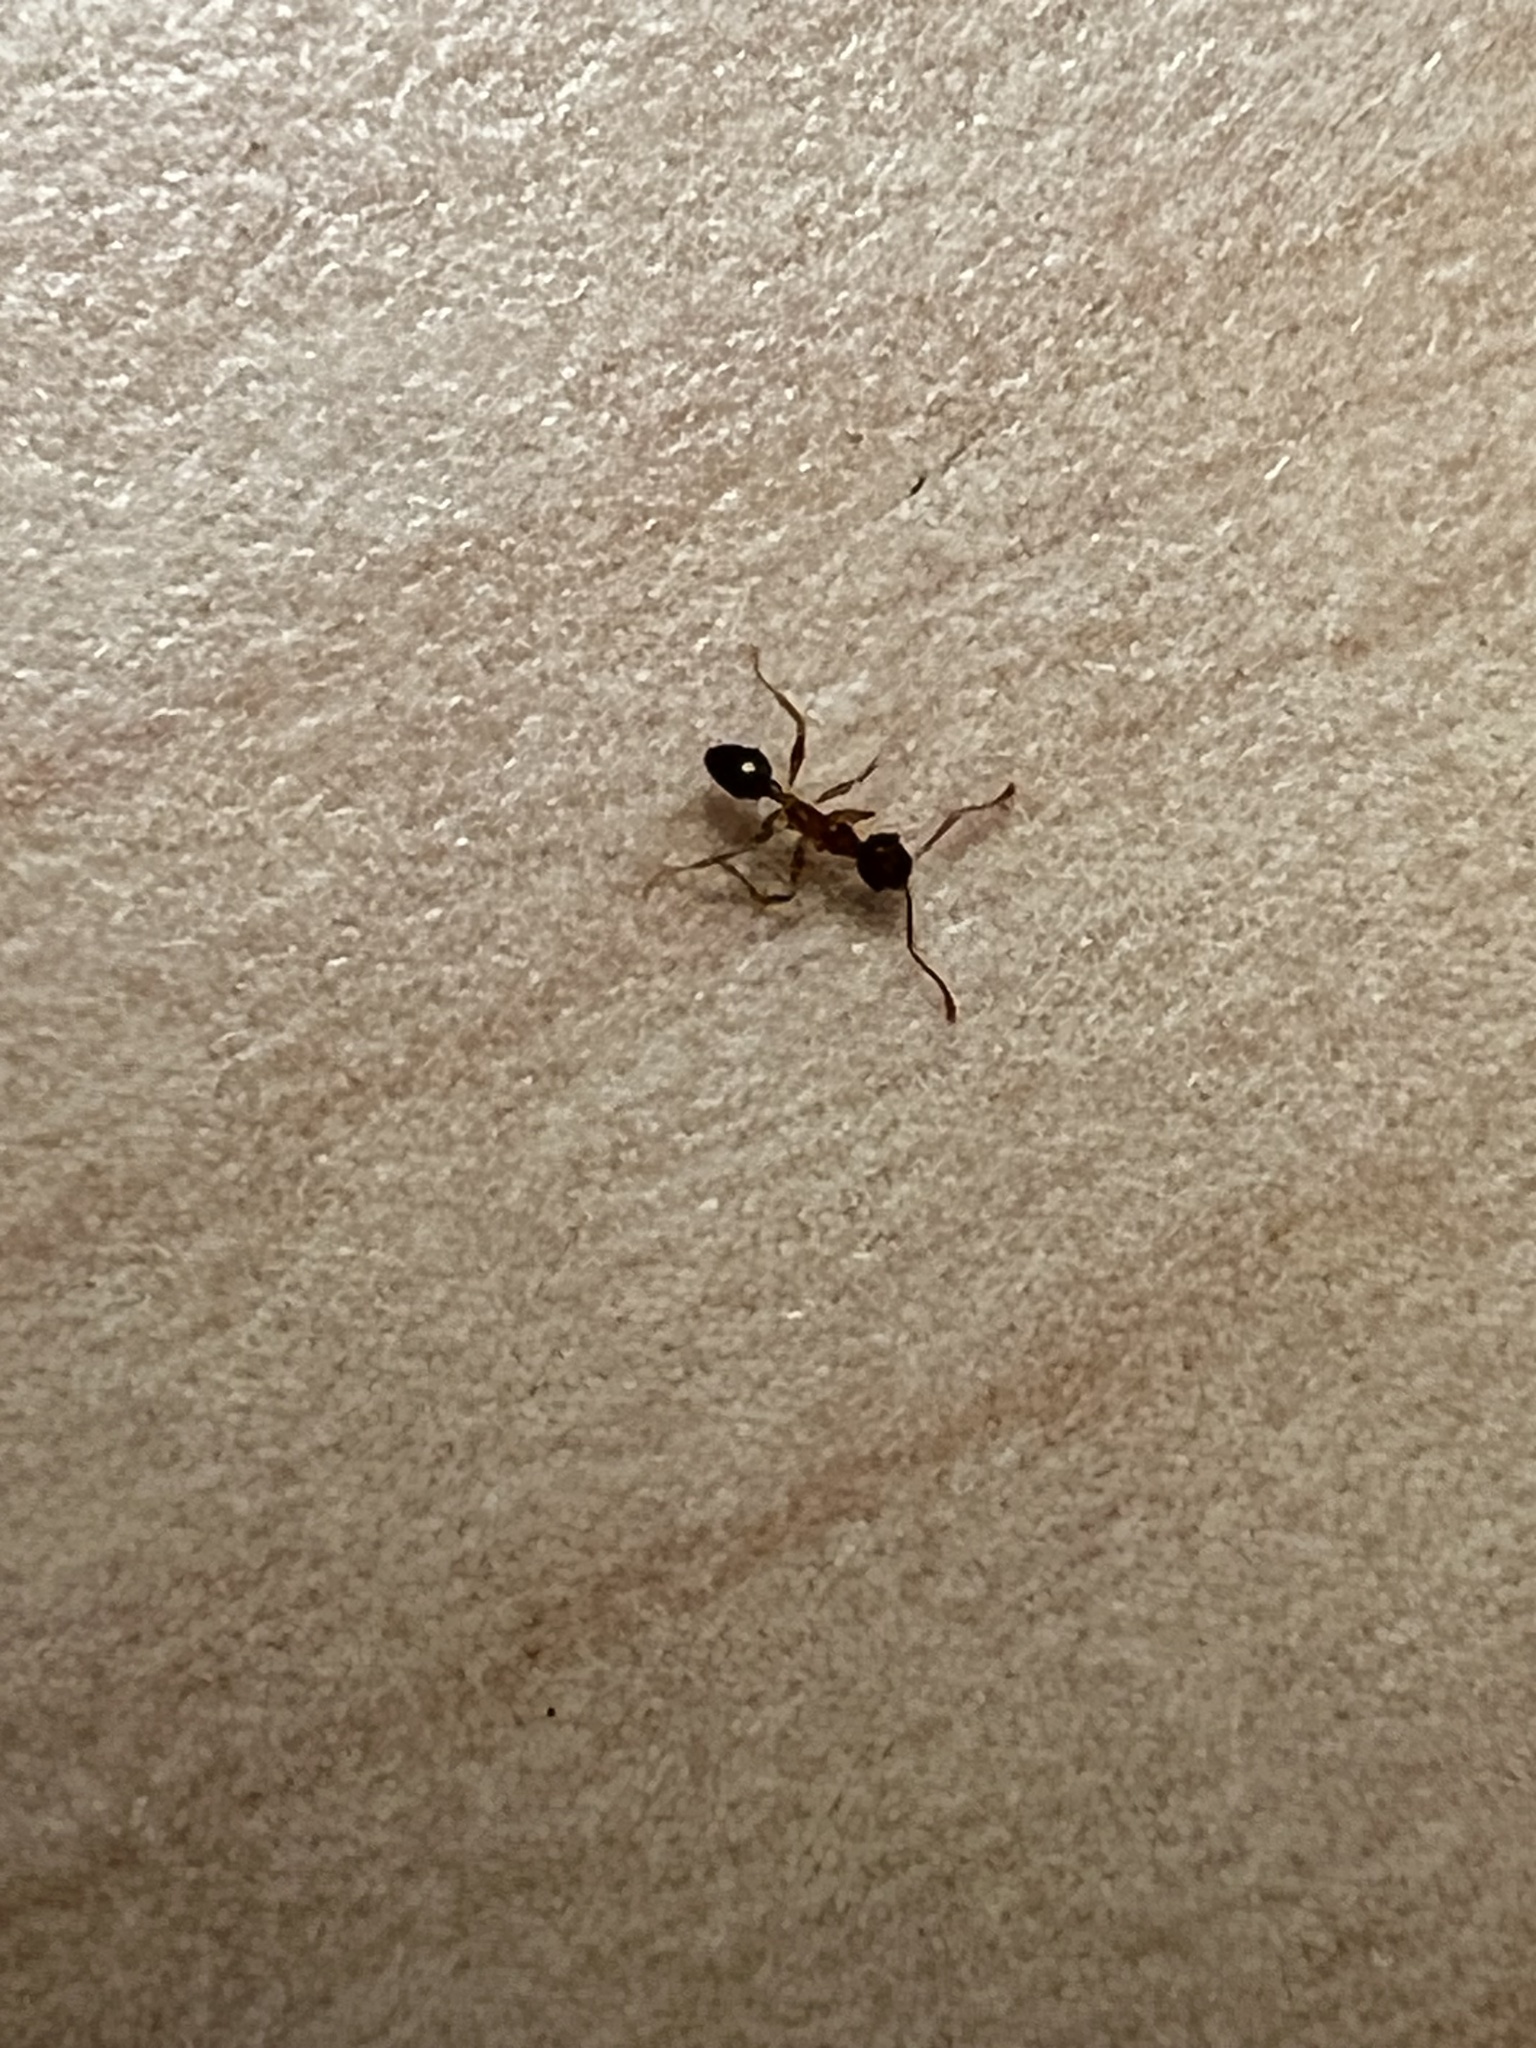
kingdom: Animalia
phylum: Arthropoda
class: Insecta
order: Hymenoptera
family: Formicidae
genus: Pheidole
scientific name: Pheidole dentata
